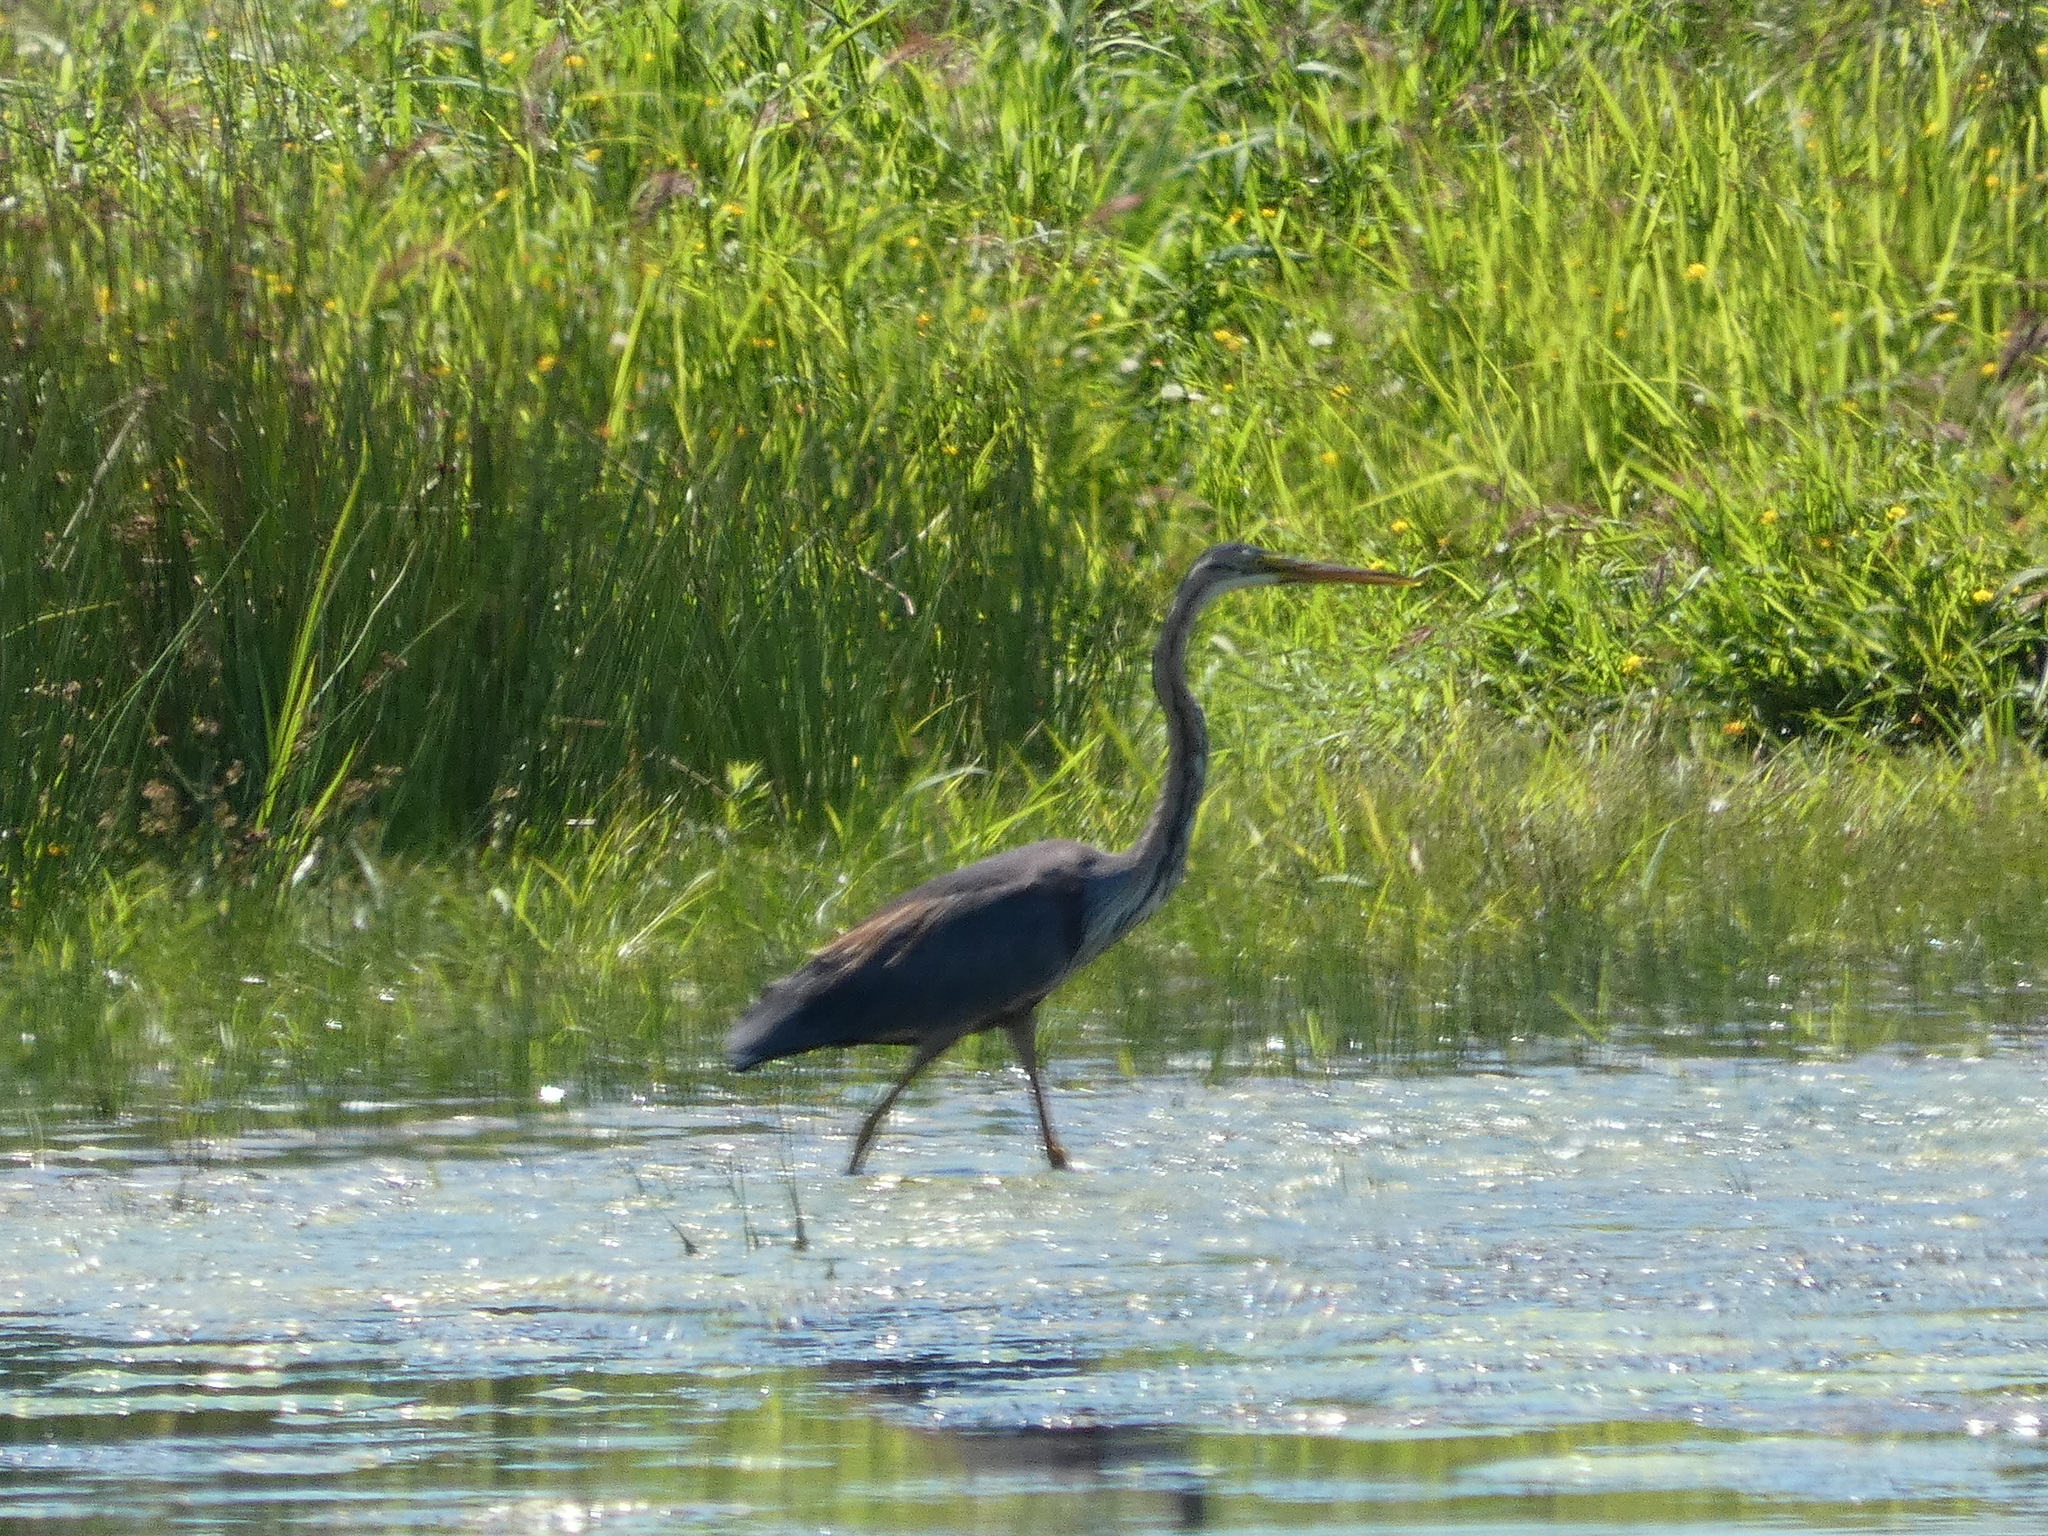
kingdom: Animalia
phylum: Chordata
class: Aves
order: Pelecaniformes
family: Ardeidae
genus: Ardea
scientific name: Ardea purpurea
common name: Purple heron
